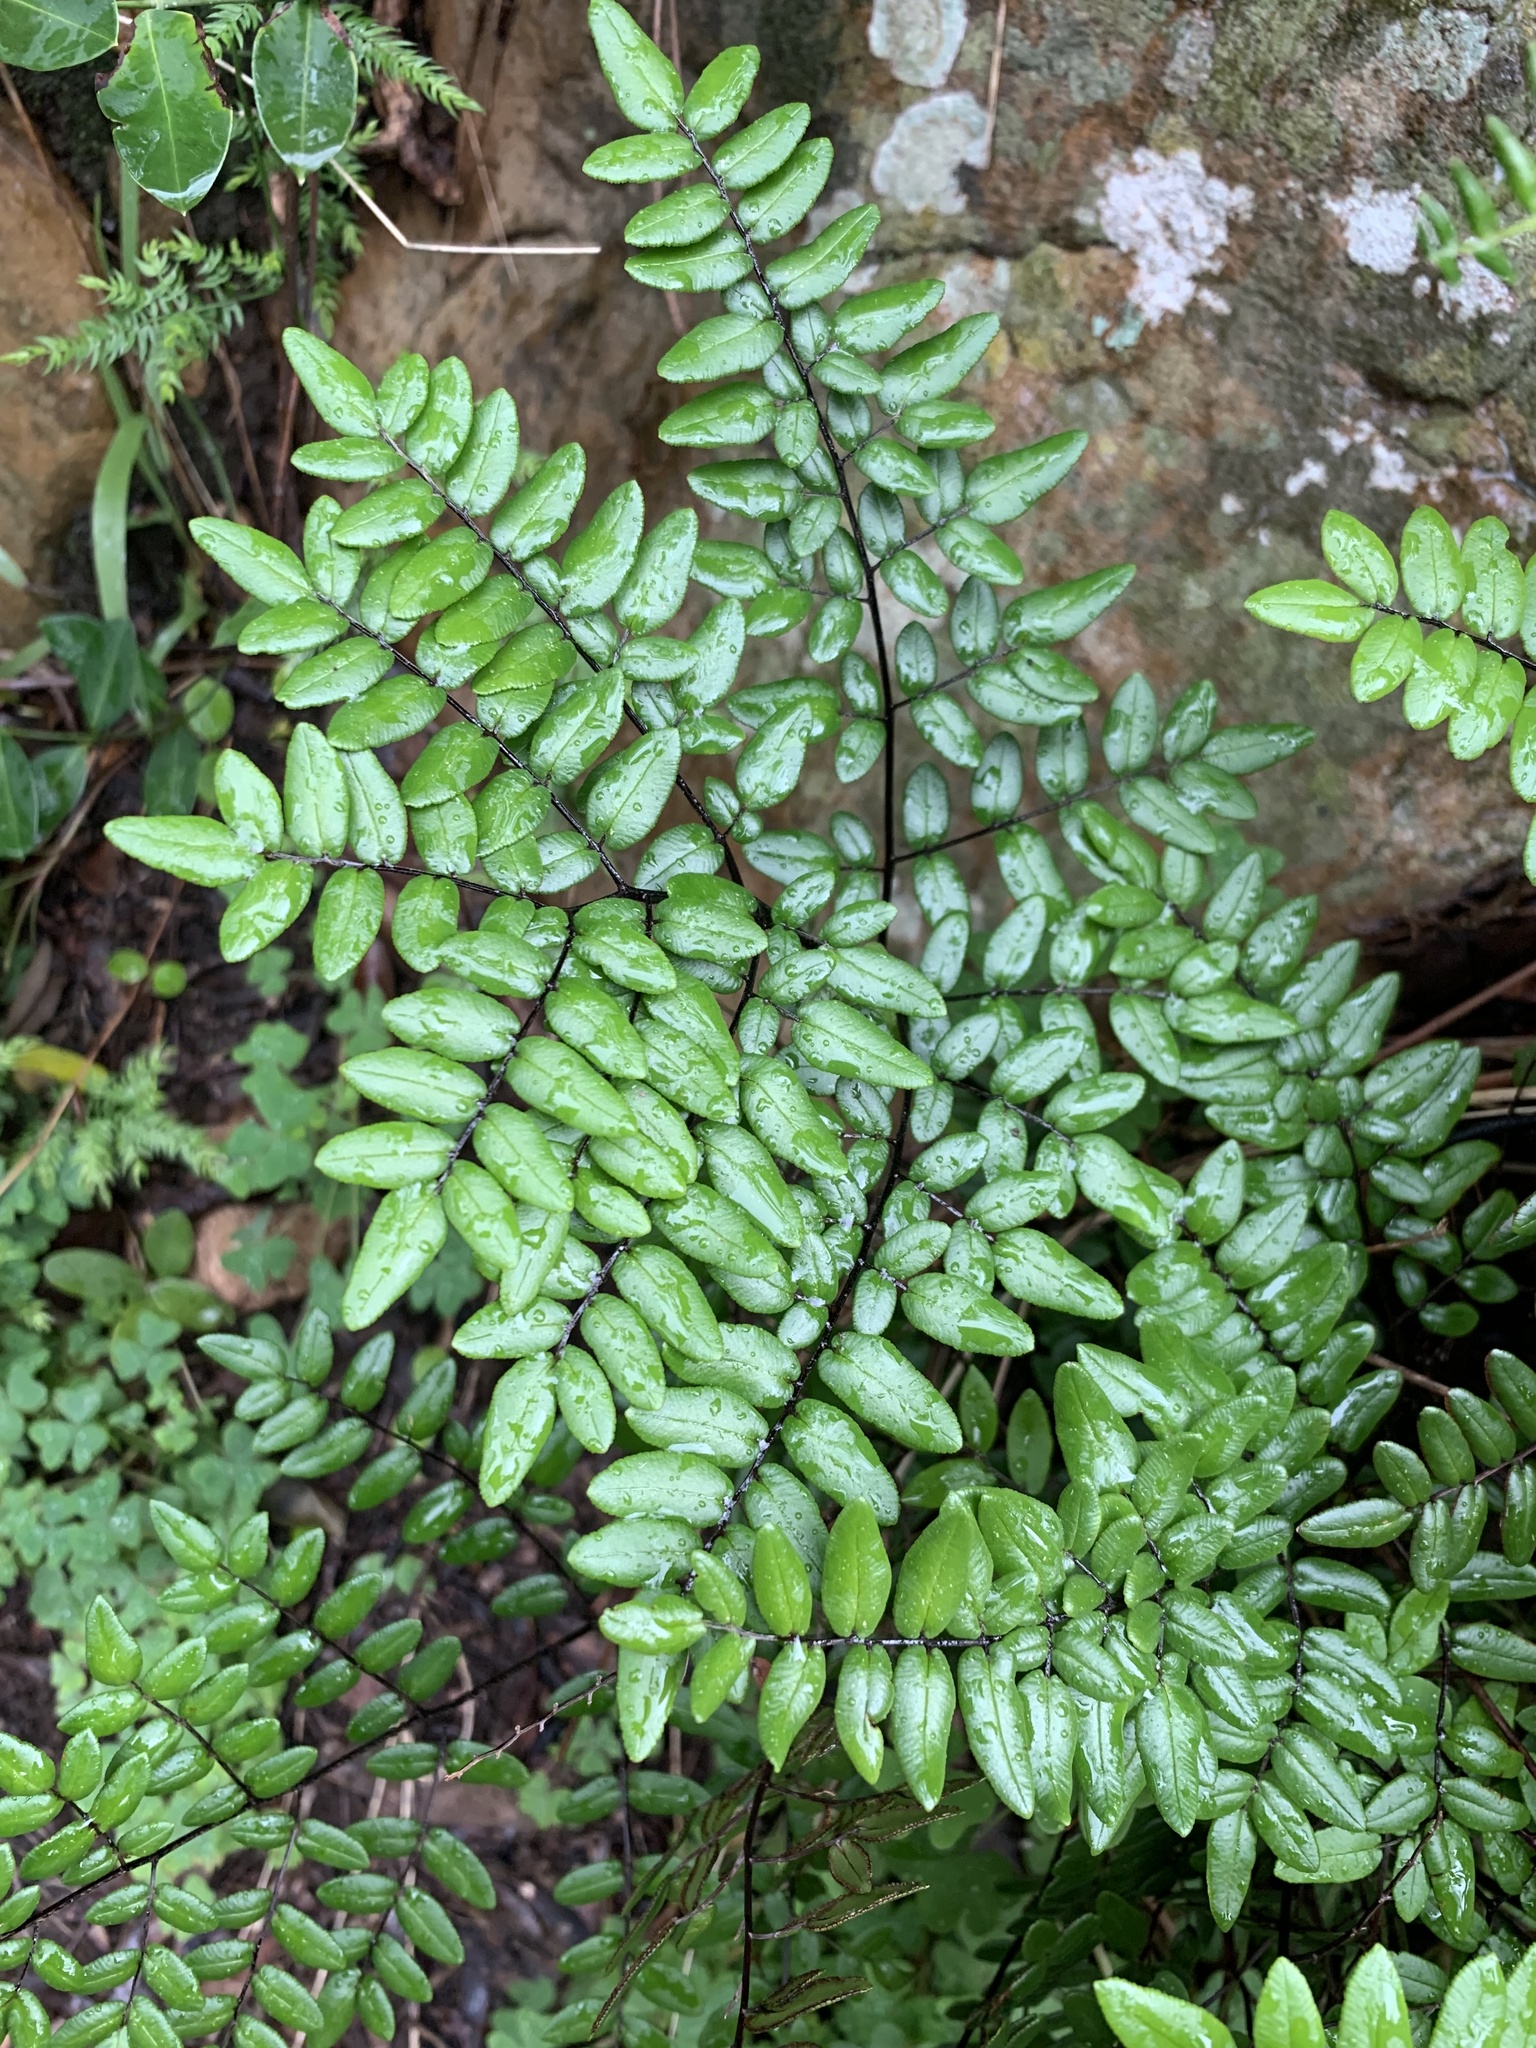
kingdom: Plantae
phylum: Tracheophyta
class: Polypodiopsida
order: Polypodiales
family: Pteridaceae
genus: Pellaea
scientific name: Pellaea pteroides
